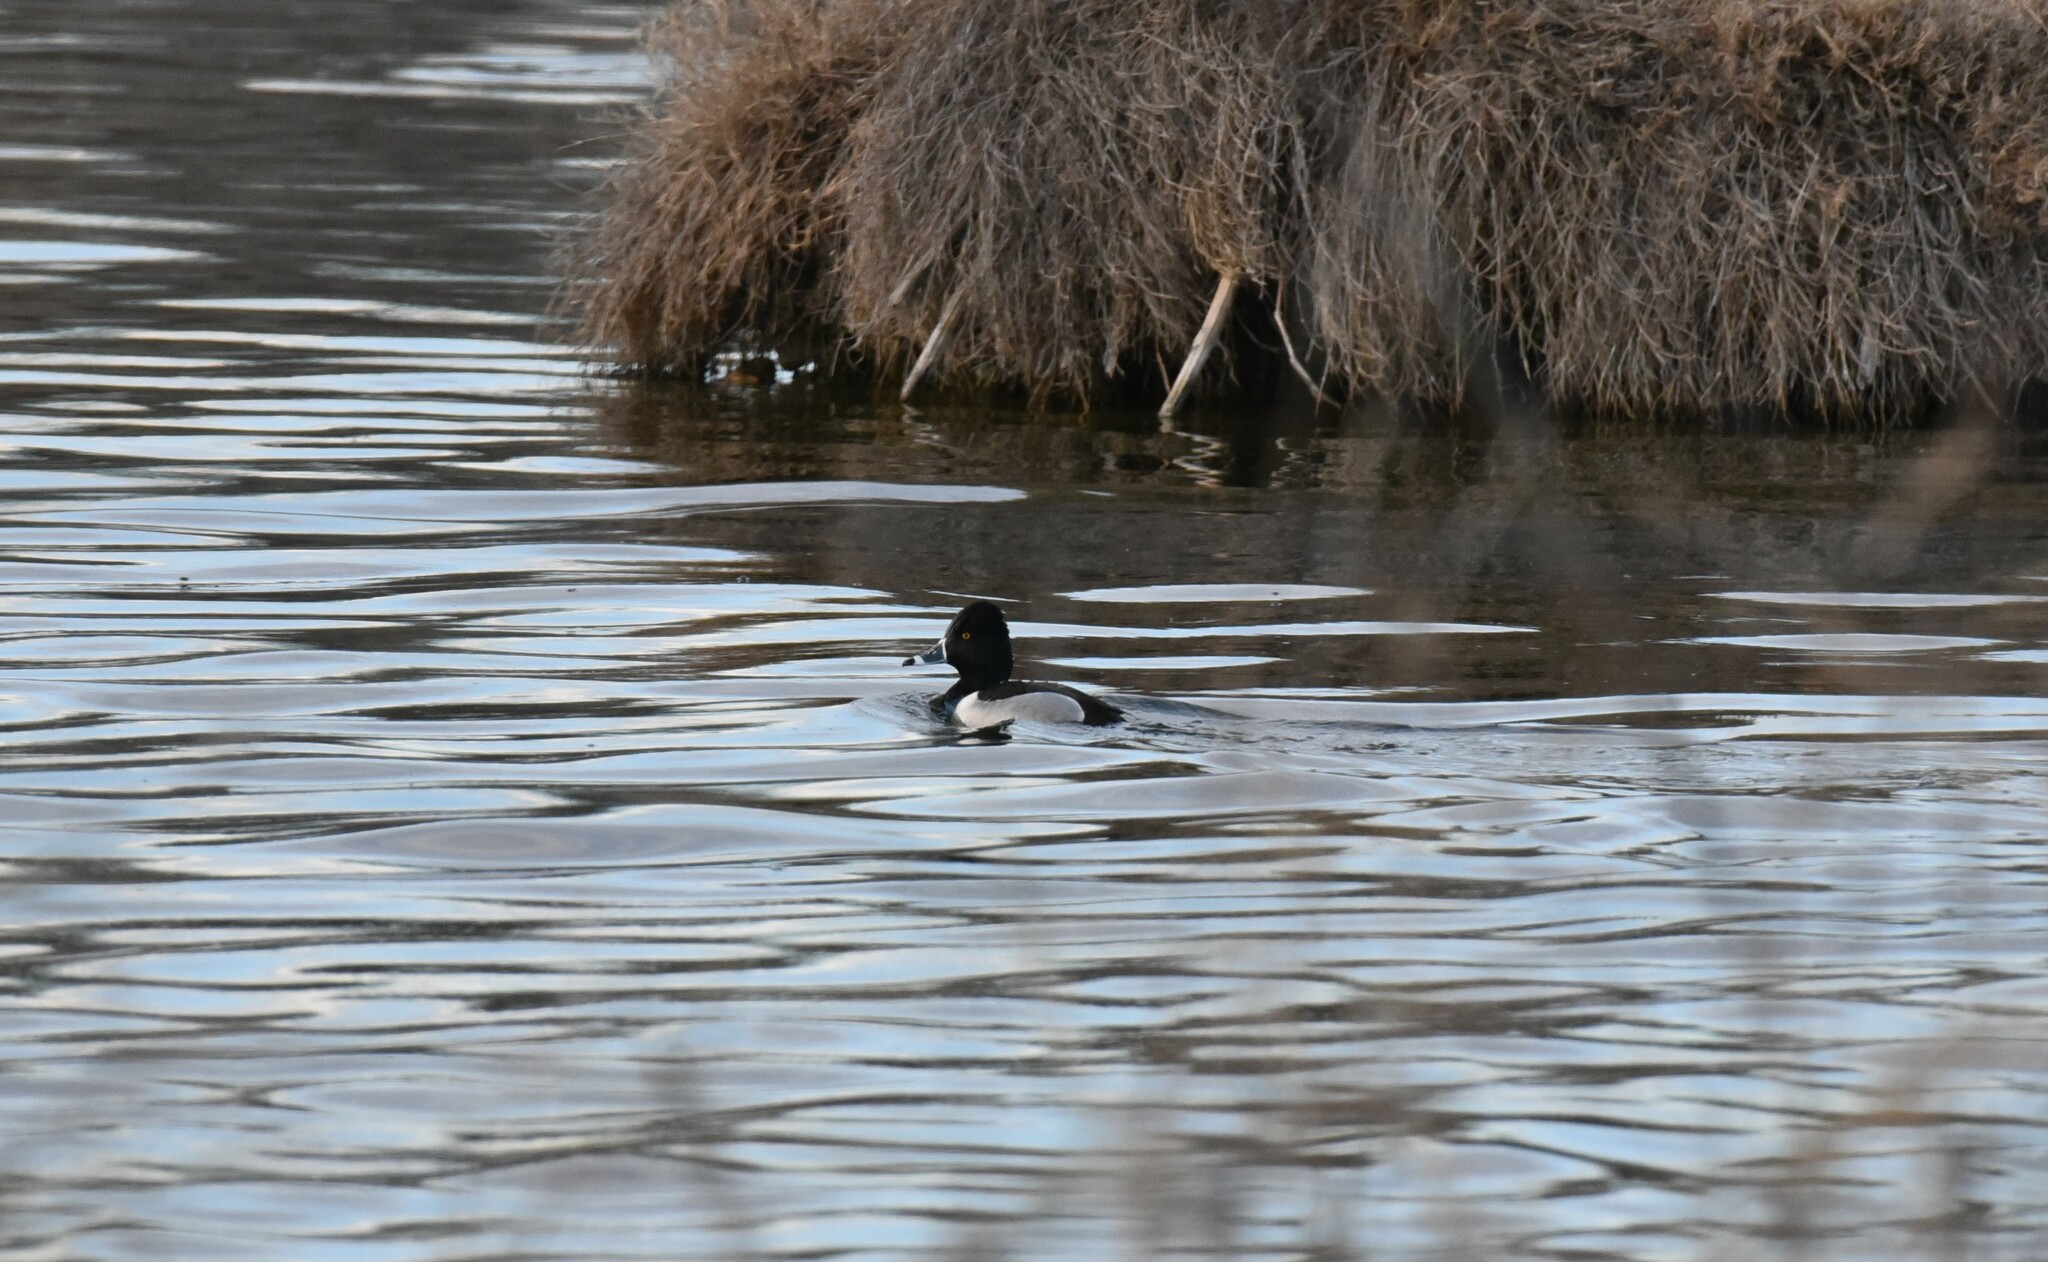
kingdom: Animalia
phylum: Chordata
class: Aves
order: Anseriformes
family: Anatidae
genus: Aythya
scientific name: Aythya collaris
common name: Ring-necked duck
